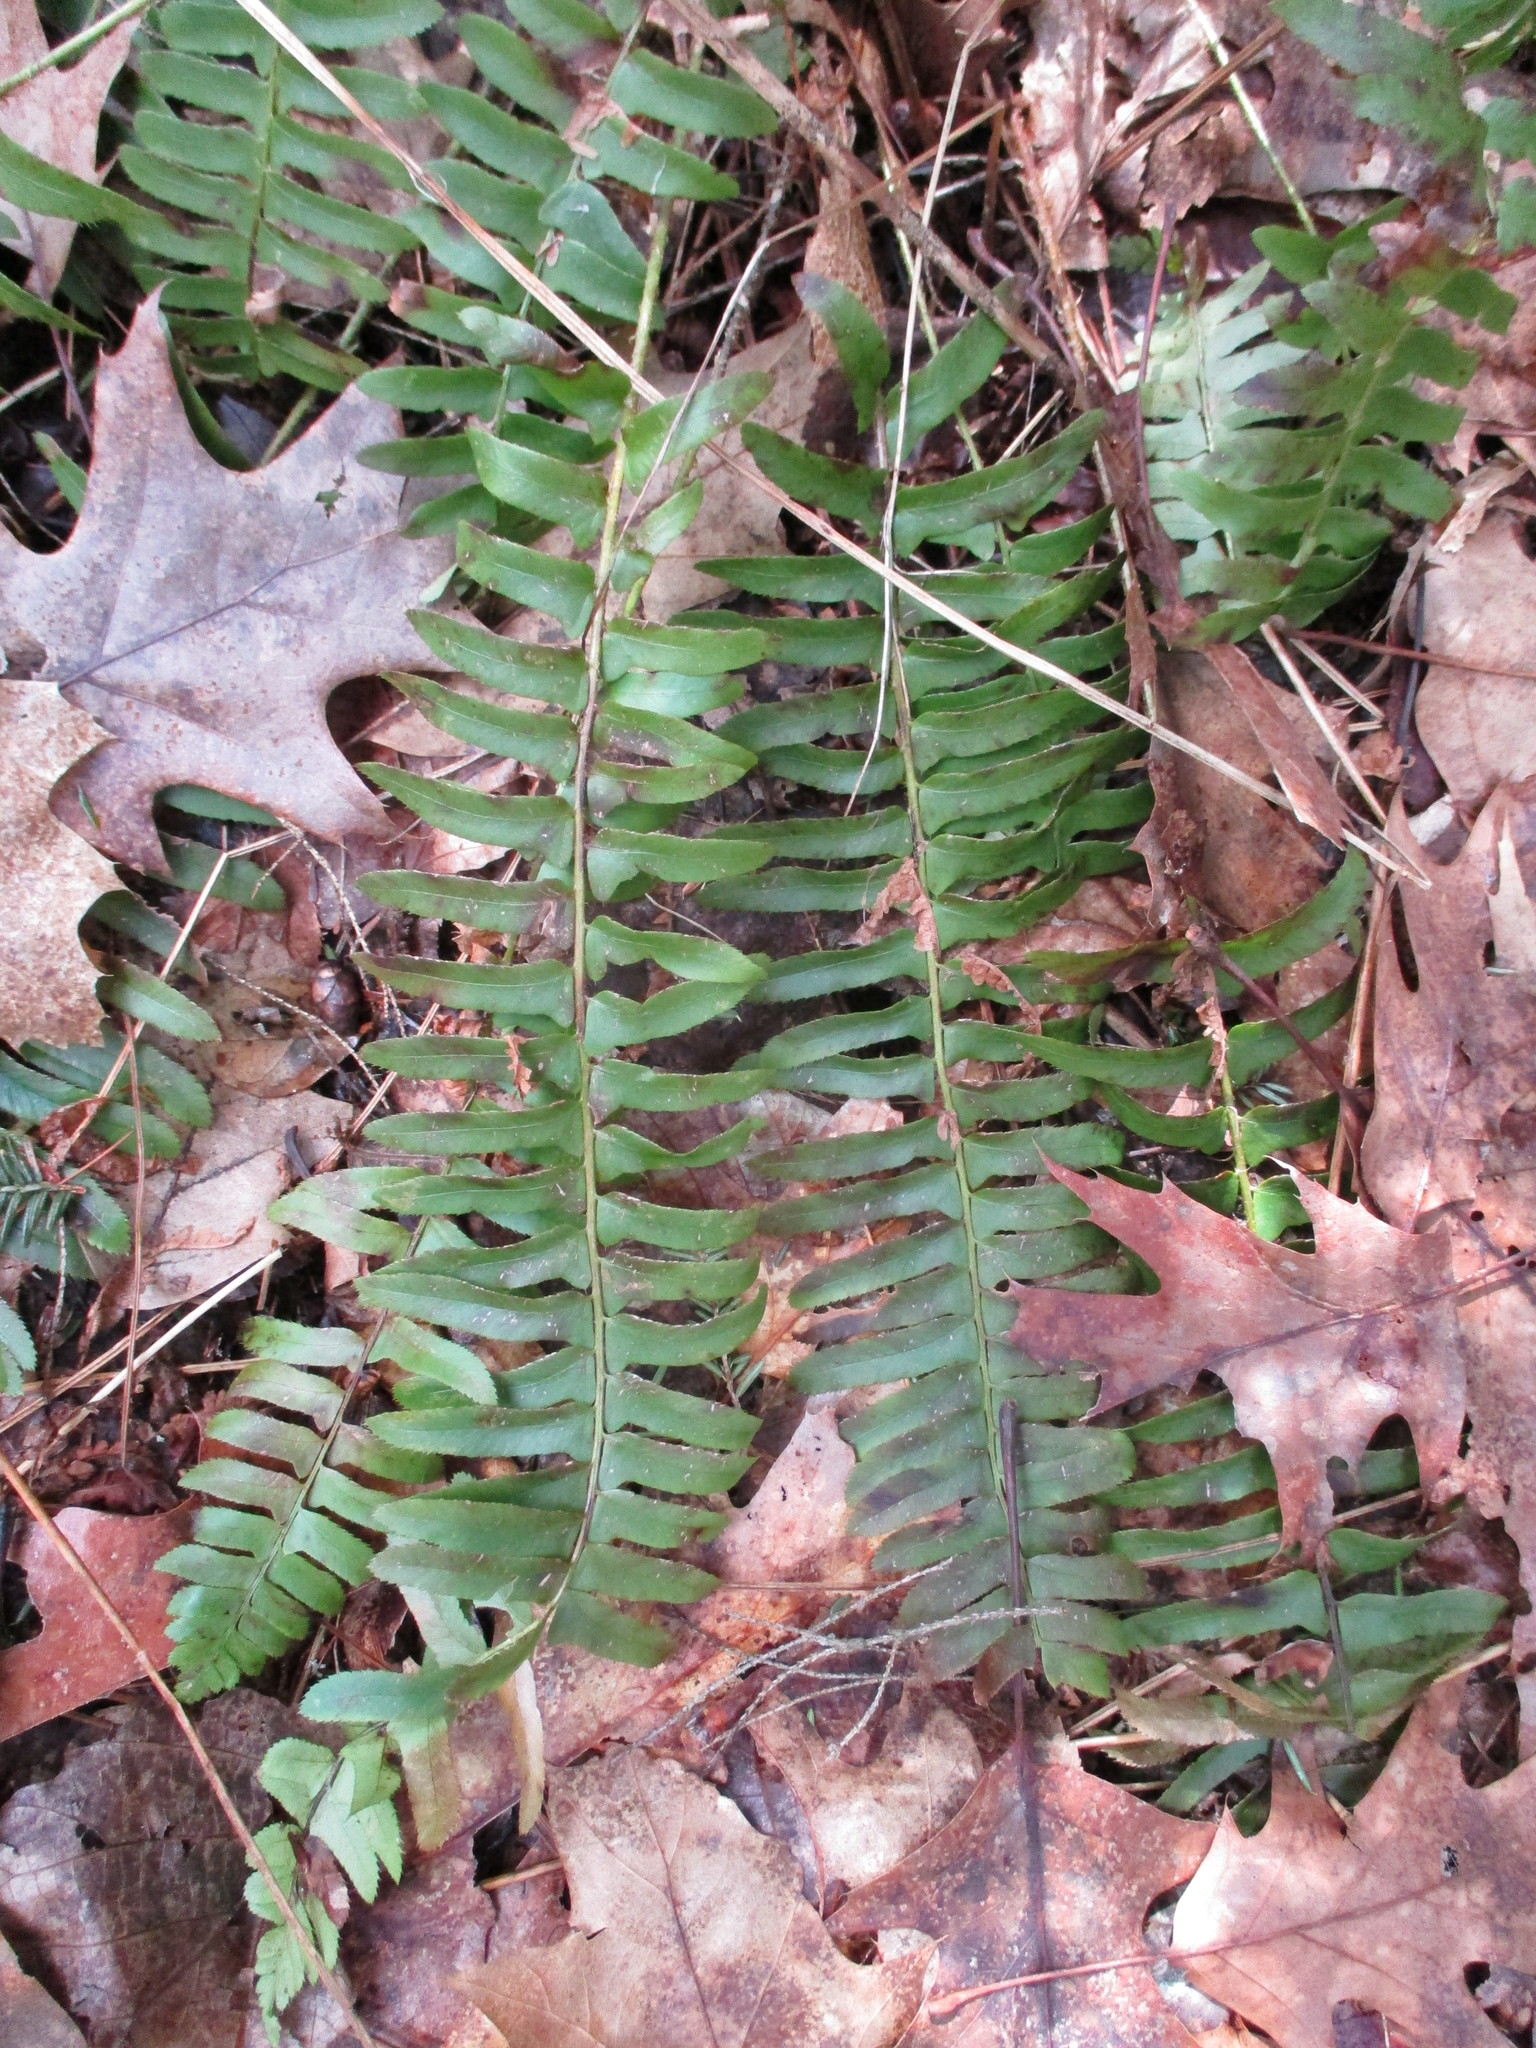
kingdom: Plantae
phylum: Tracheophyta
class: Polypodiopsida
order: Polypodiales
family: Dryopteridaceae
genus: Polystichum
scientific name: Polystichum acrostichoides
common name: Christmas fern
